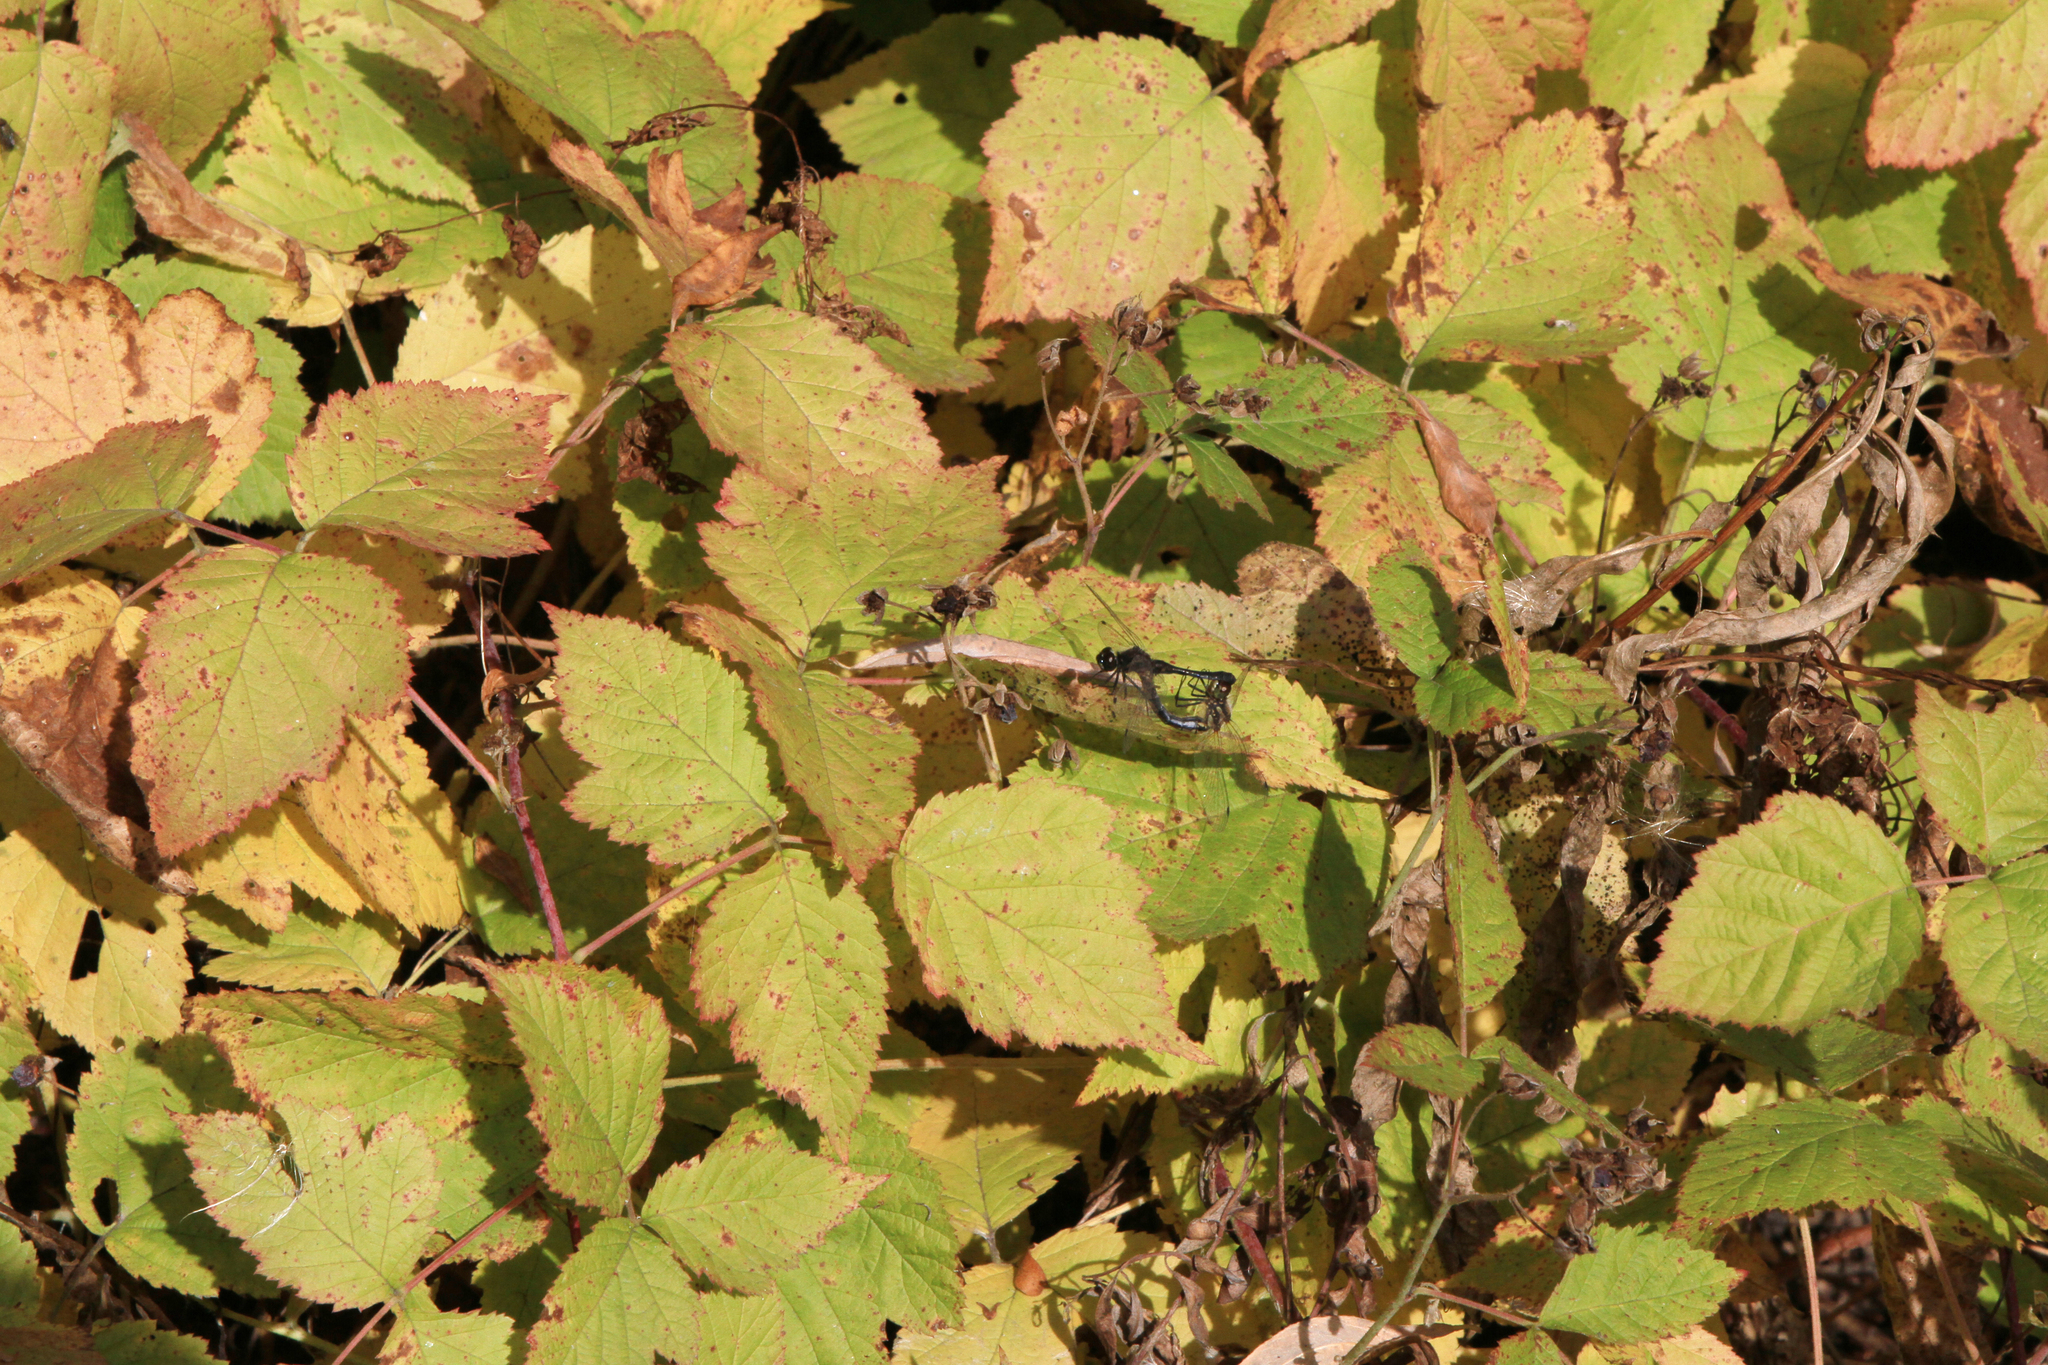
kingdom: Animalia
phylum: Arthropoda
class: Insecta
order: Odonata
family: Libellulidae
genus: Sympetrum
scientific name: Sympetrum danae
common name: Black darter
